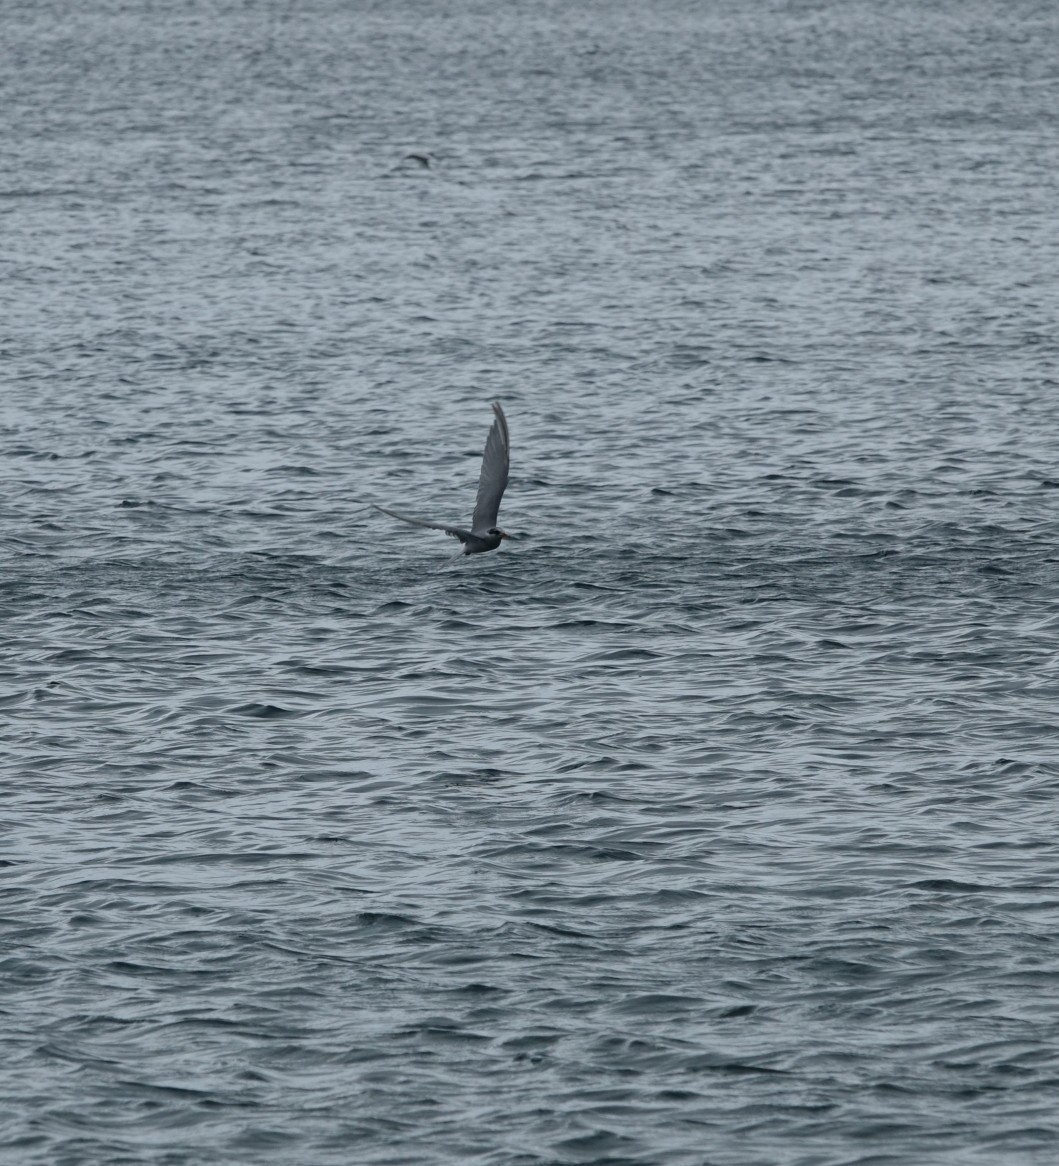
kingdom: Animalia
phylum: Chordata
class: Aves
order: Charadriiformes
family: Laridae
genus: Chlidonias
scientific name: Chlidonias albostriatus
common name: Black-fronted tern
